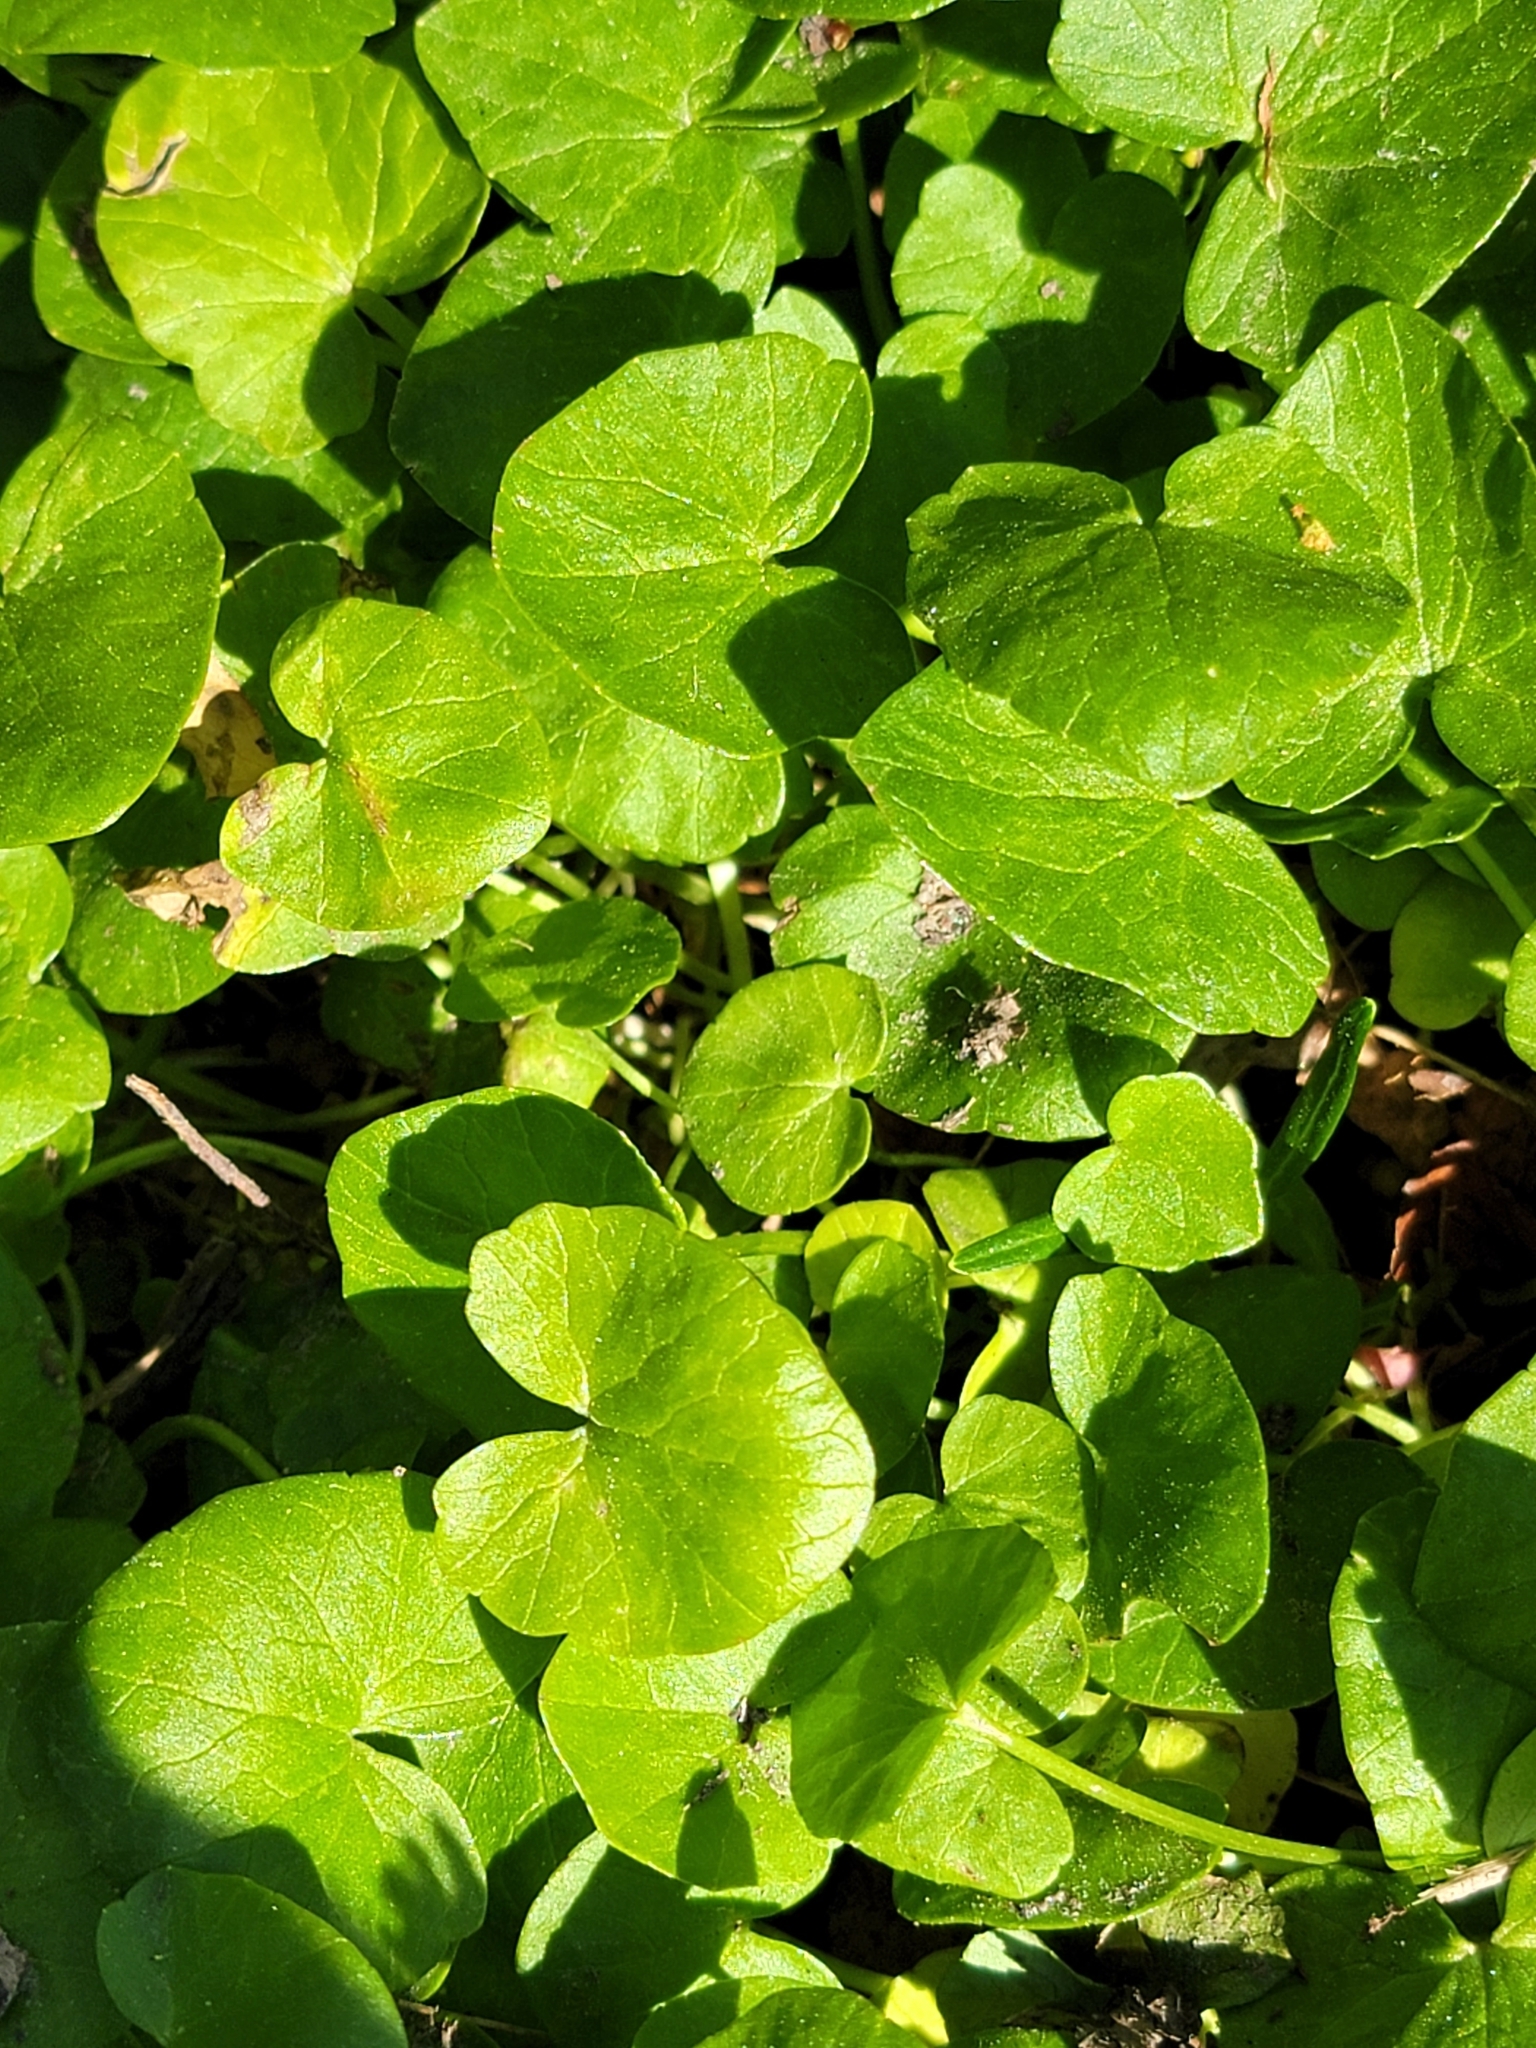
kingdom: Plantae
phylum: Tracheophyta
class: Magnoliopsida
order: Ranunculales
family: Ranunculaceae
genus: Ficaria
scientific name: Ficaria verna
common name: Lesser celandine
